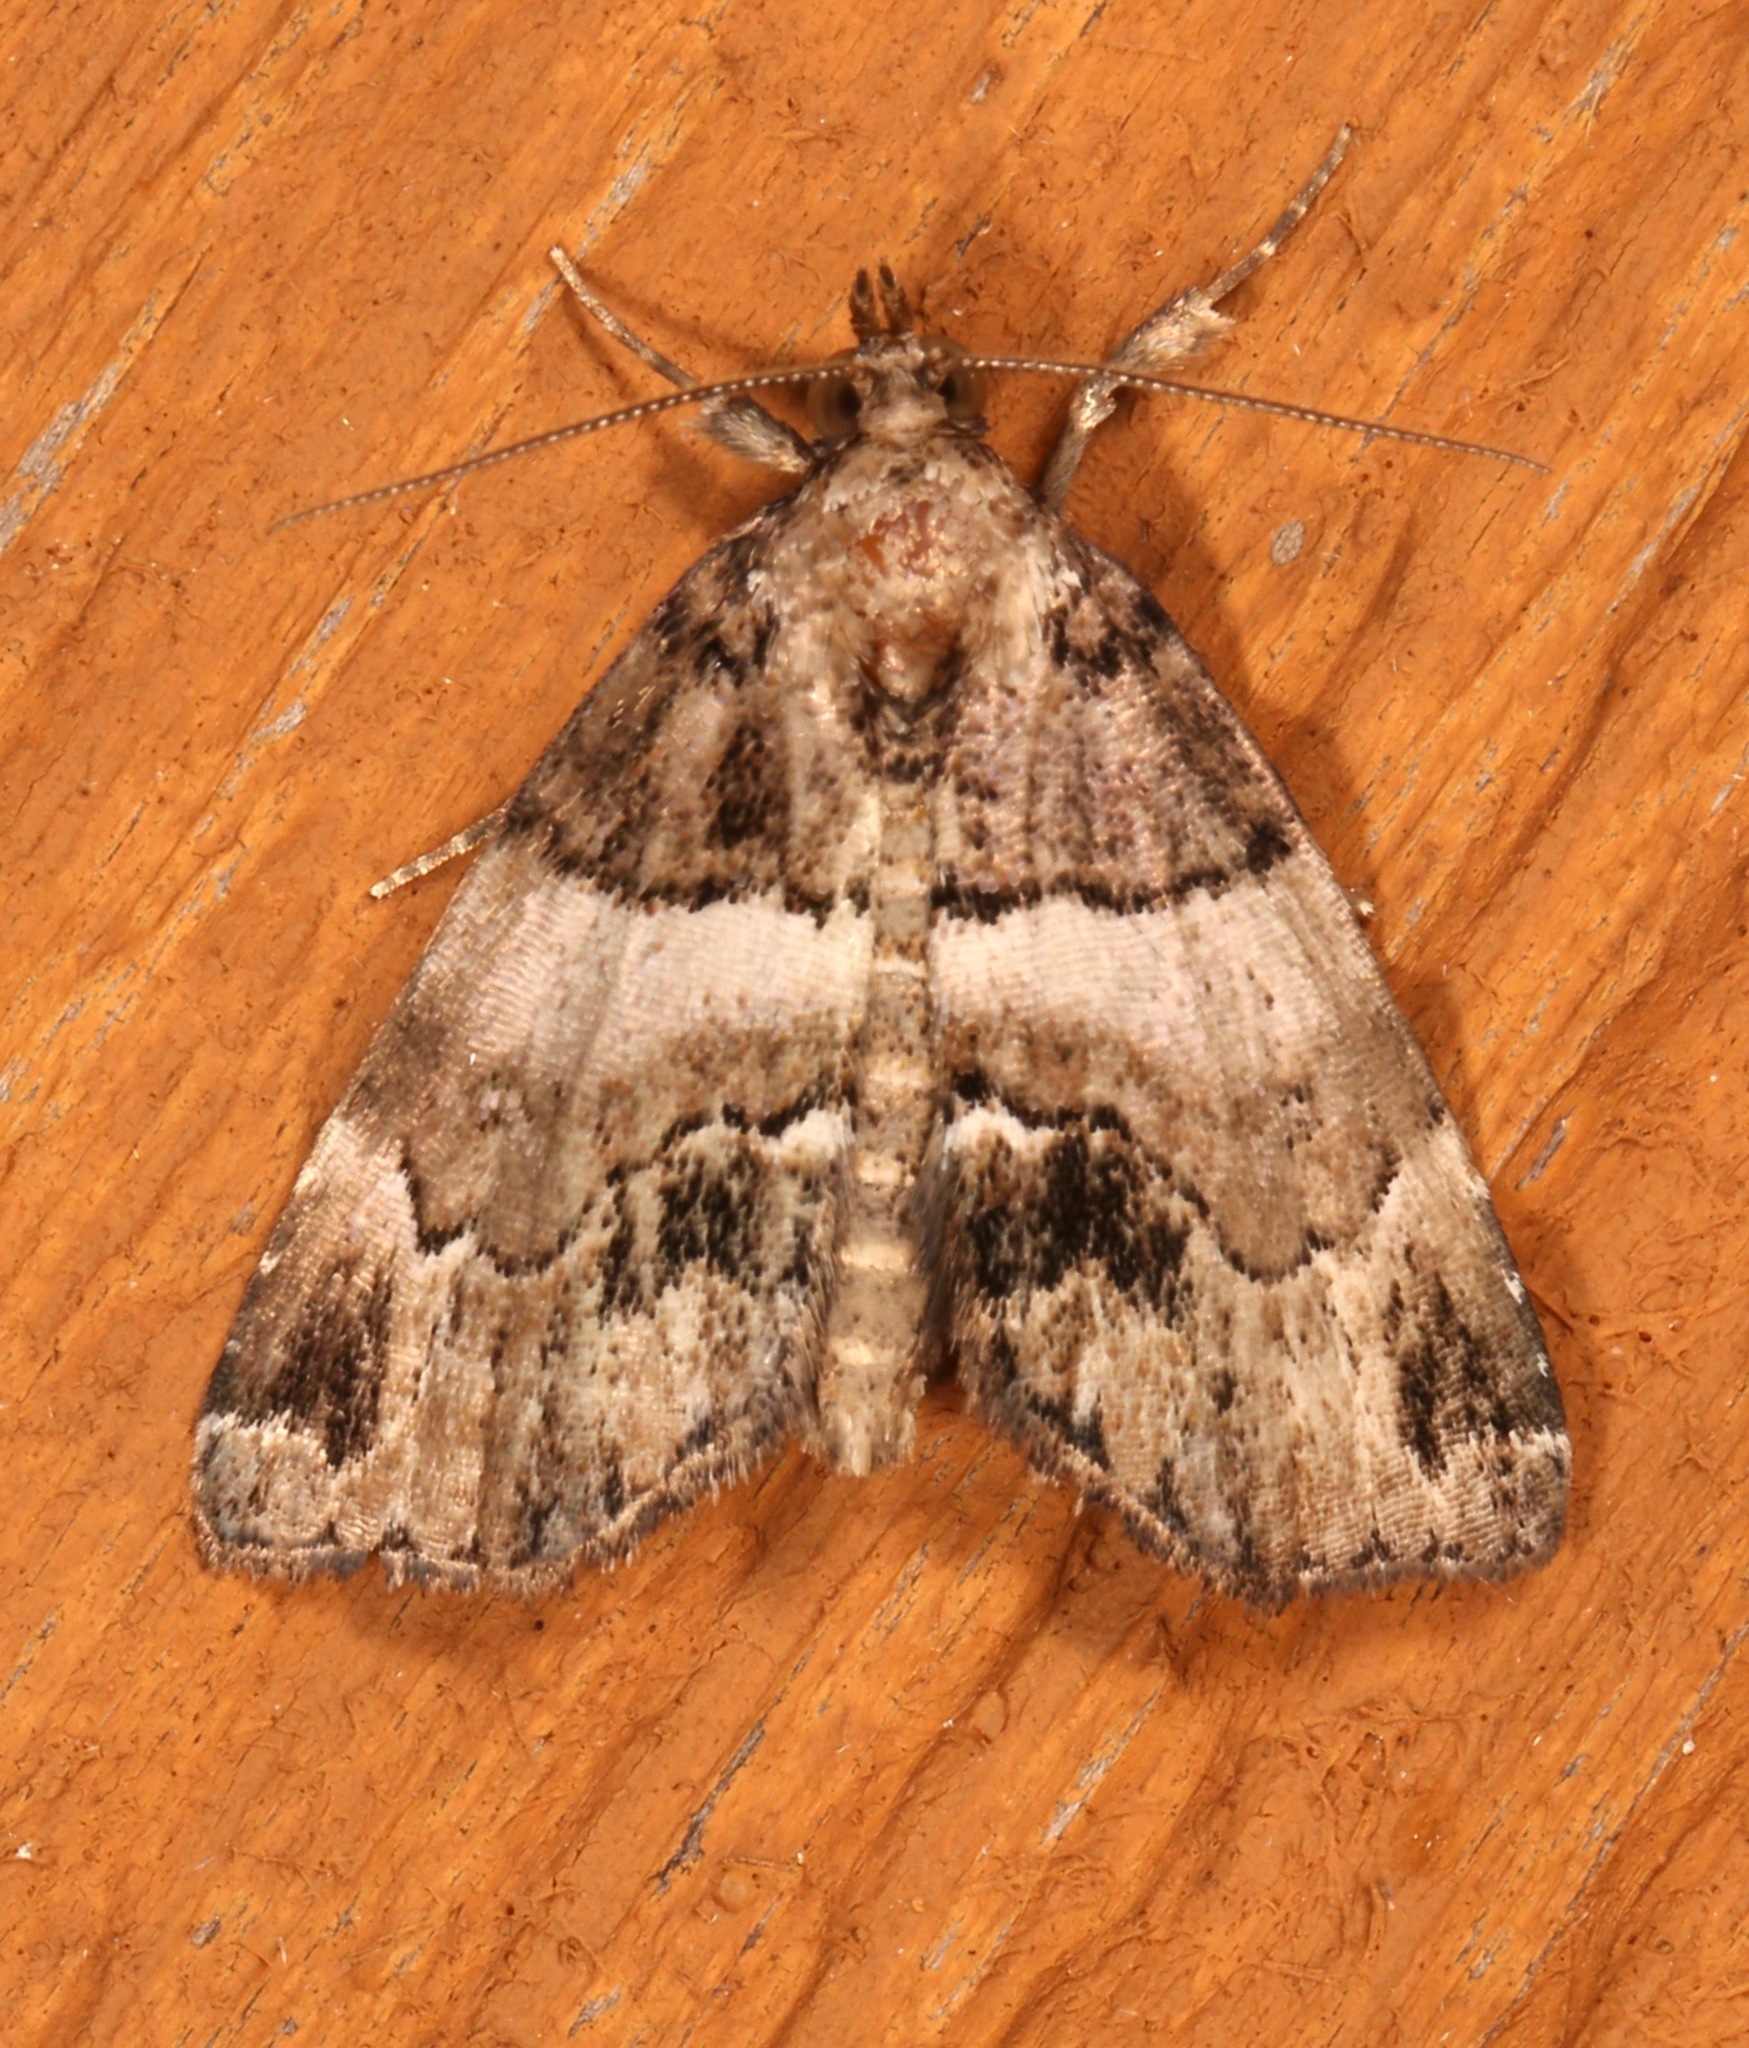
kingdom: Animalia
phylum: Arthropoda
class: Insecta
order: Lepidoptera
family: Erebidae
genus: Cutina
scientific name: Cutina distincta
